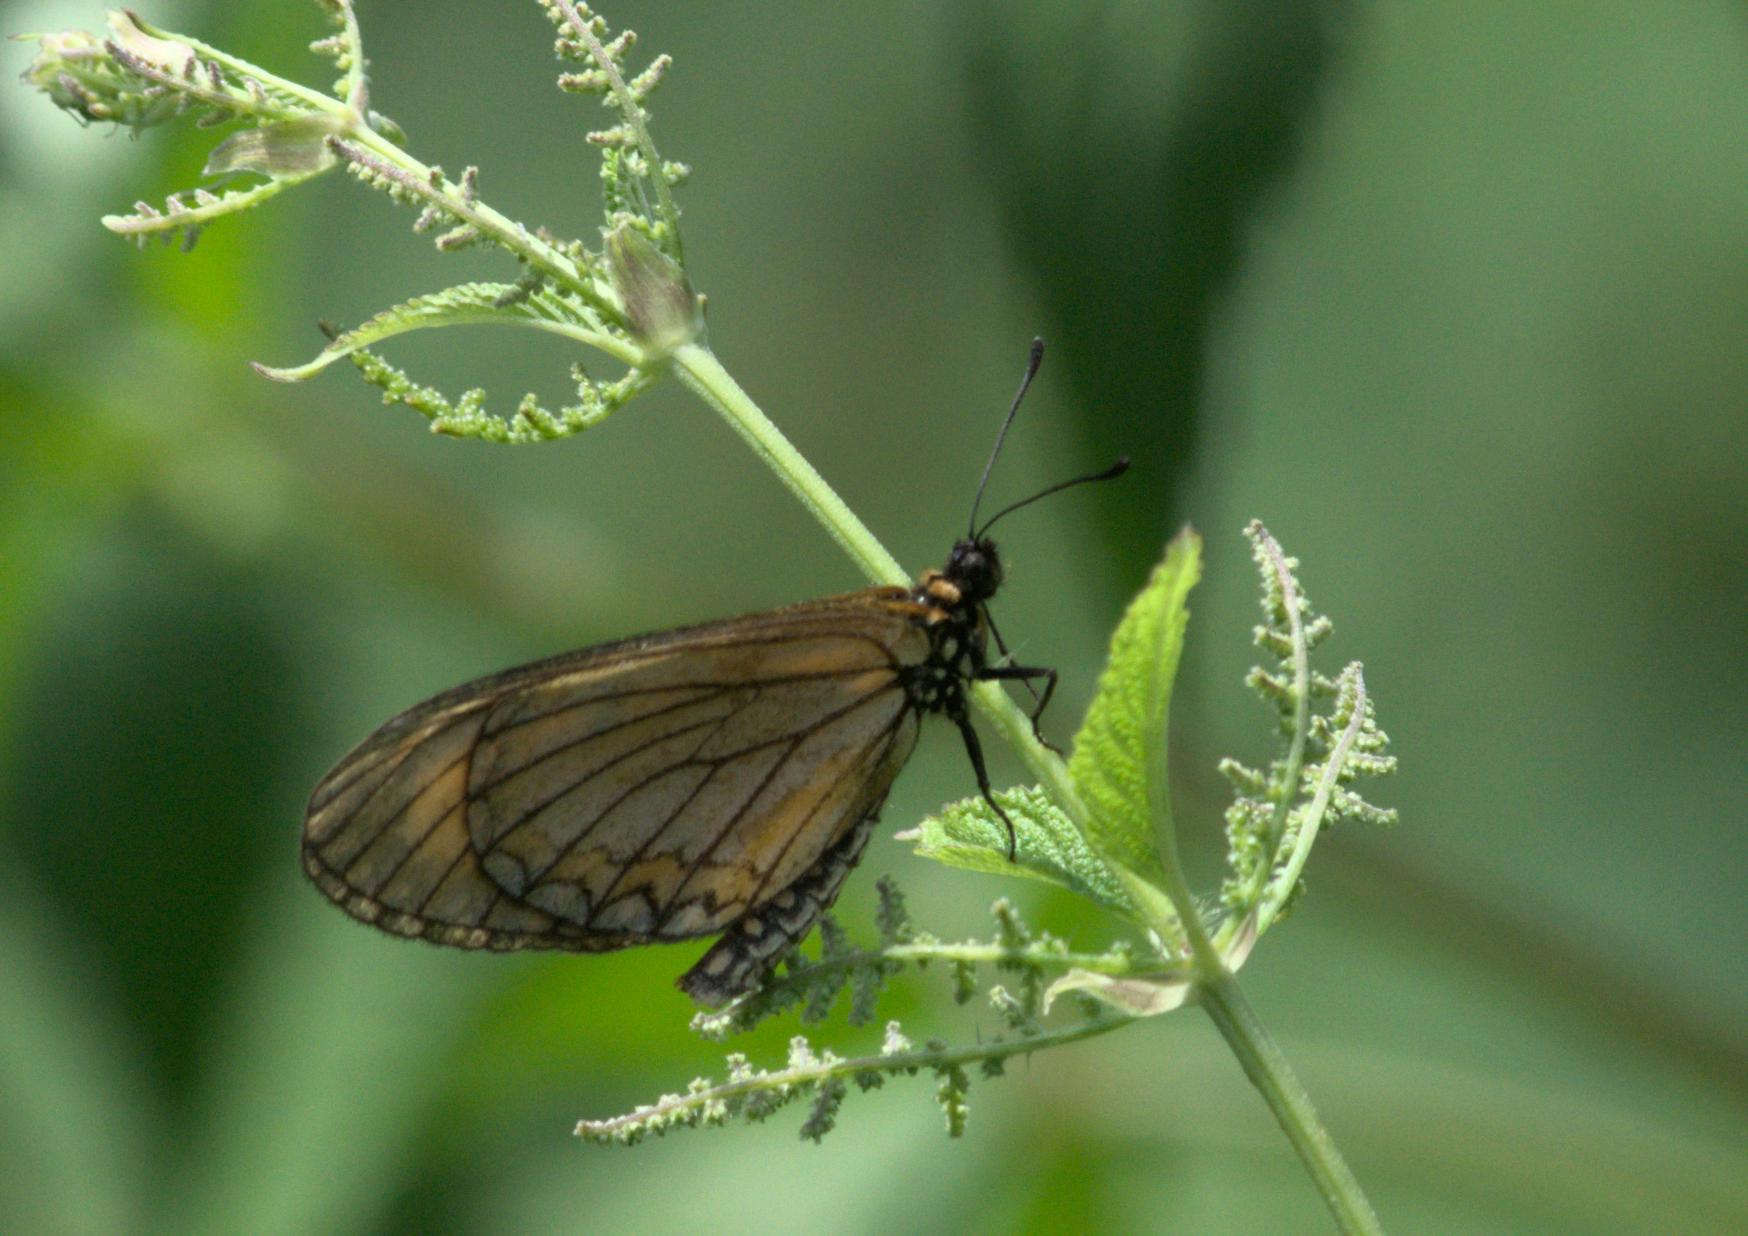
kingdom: Animalia
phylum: Arthropoda
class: Insecta
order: Lepidoptera
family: Nymphalidae
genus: Acraea
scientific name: Acraea Telchinia issoria
